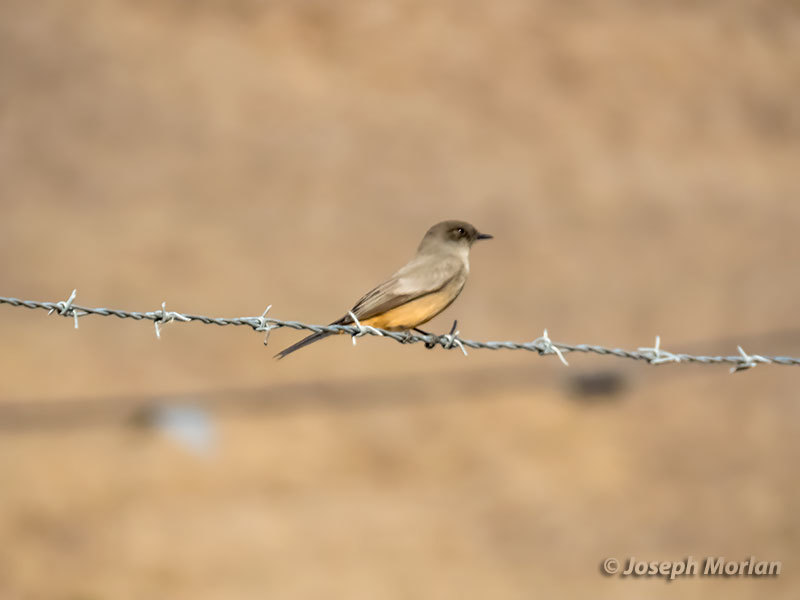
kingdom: Animalia
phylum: Chordata
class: Aves
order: Passeriformes
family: Tyrannidae
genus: Sayornis
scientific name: Sayornis saya
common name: Say's phoebe
